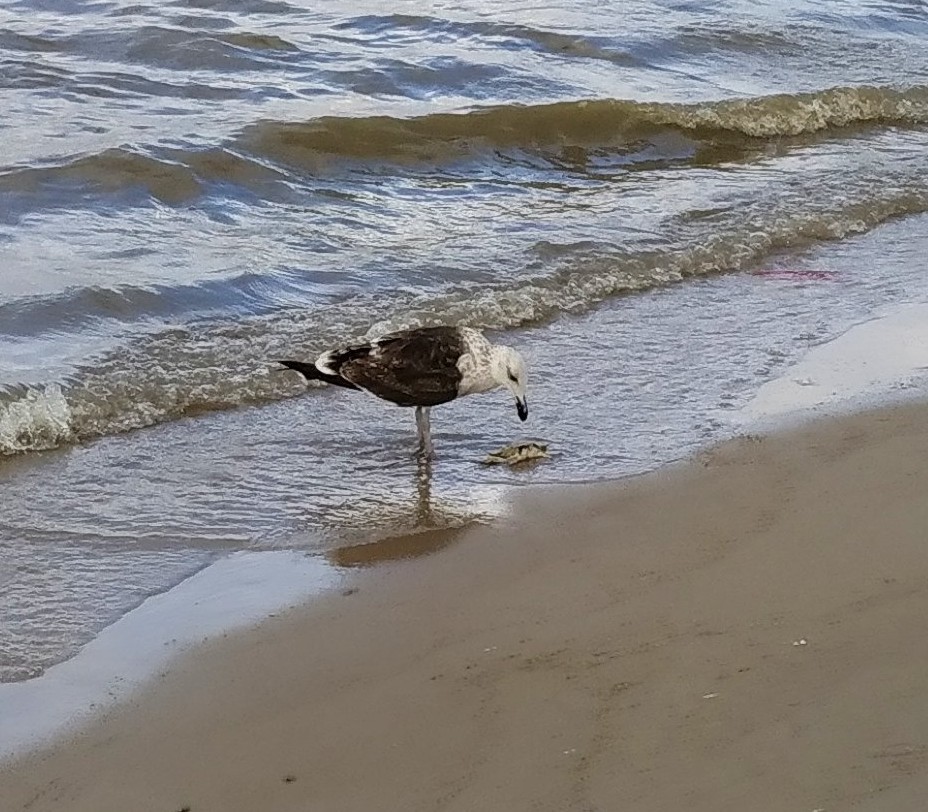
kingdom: Animalia
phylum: Chordata
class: Aves
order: Charadriiformes
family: Laridae
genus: Larus
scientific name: Larus dominicanus
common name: Kelp gull
